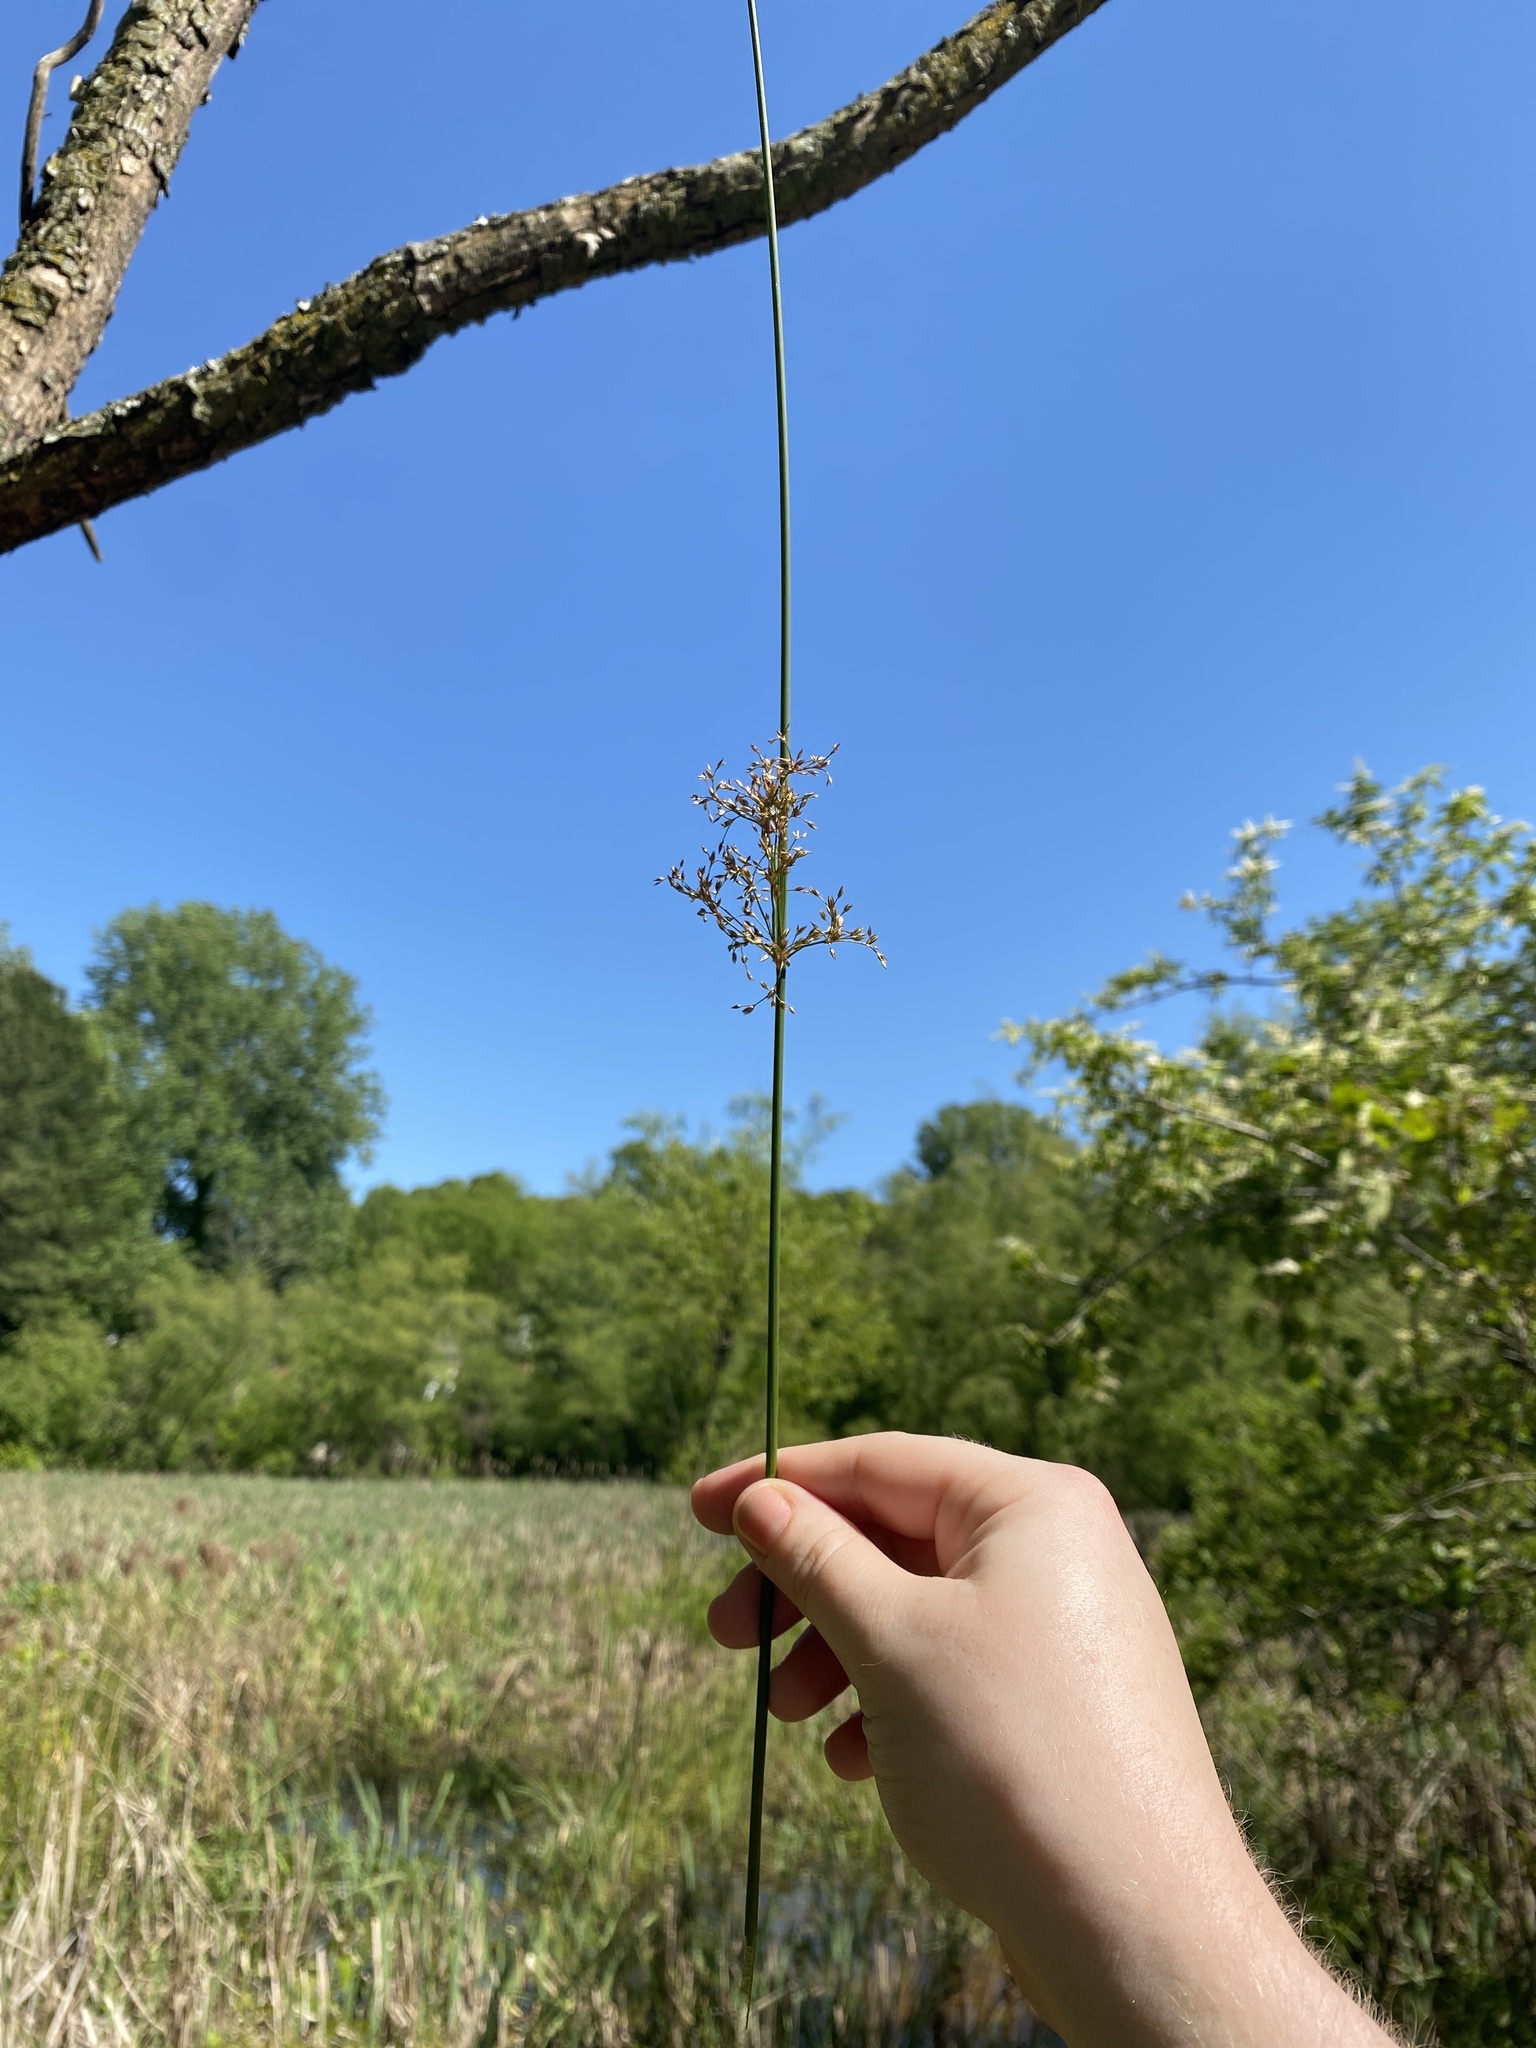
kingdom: Plantae
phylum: Tracheophyta
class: Liliopsida
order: Poales
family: Juncaceae
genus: Juncus
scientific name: Juncus effusus
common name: Soft rush
